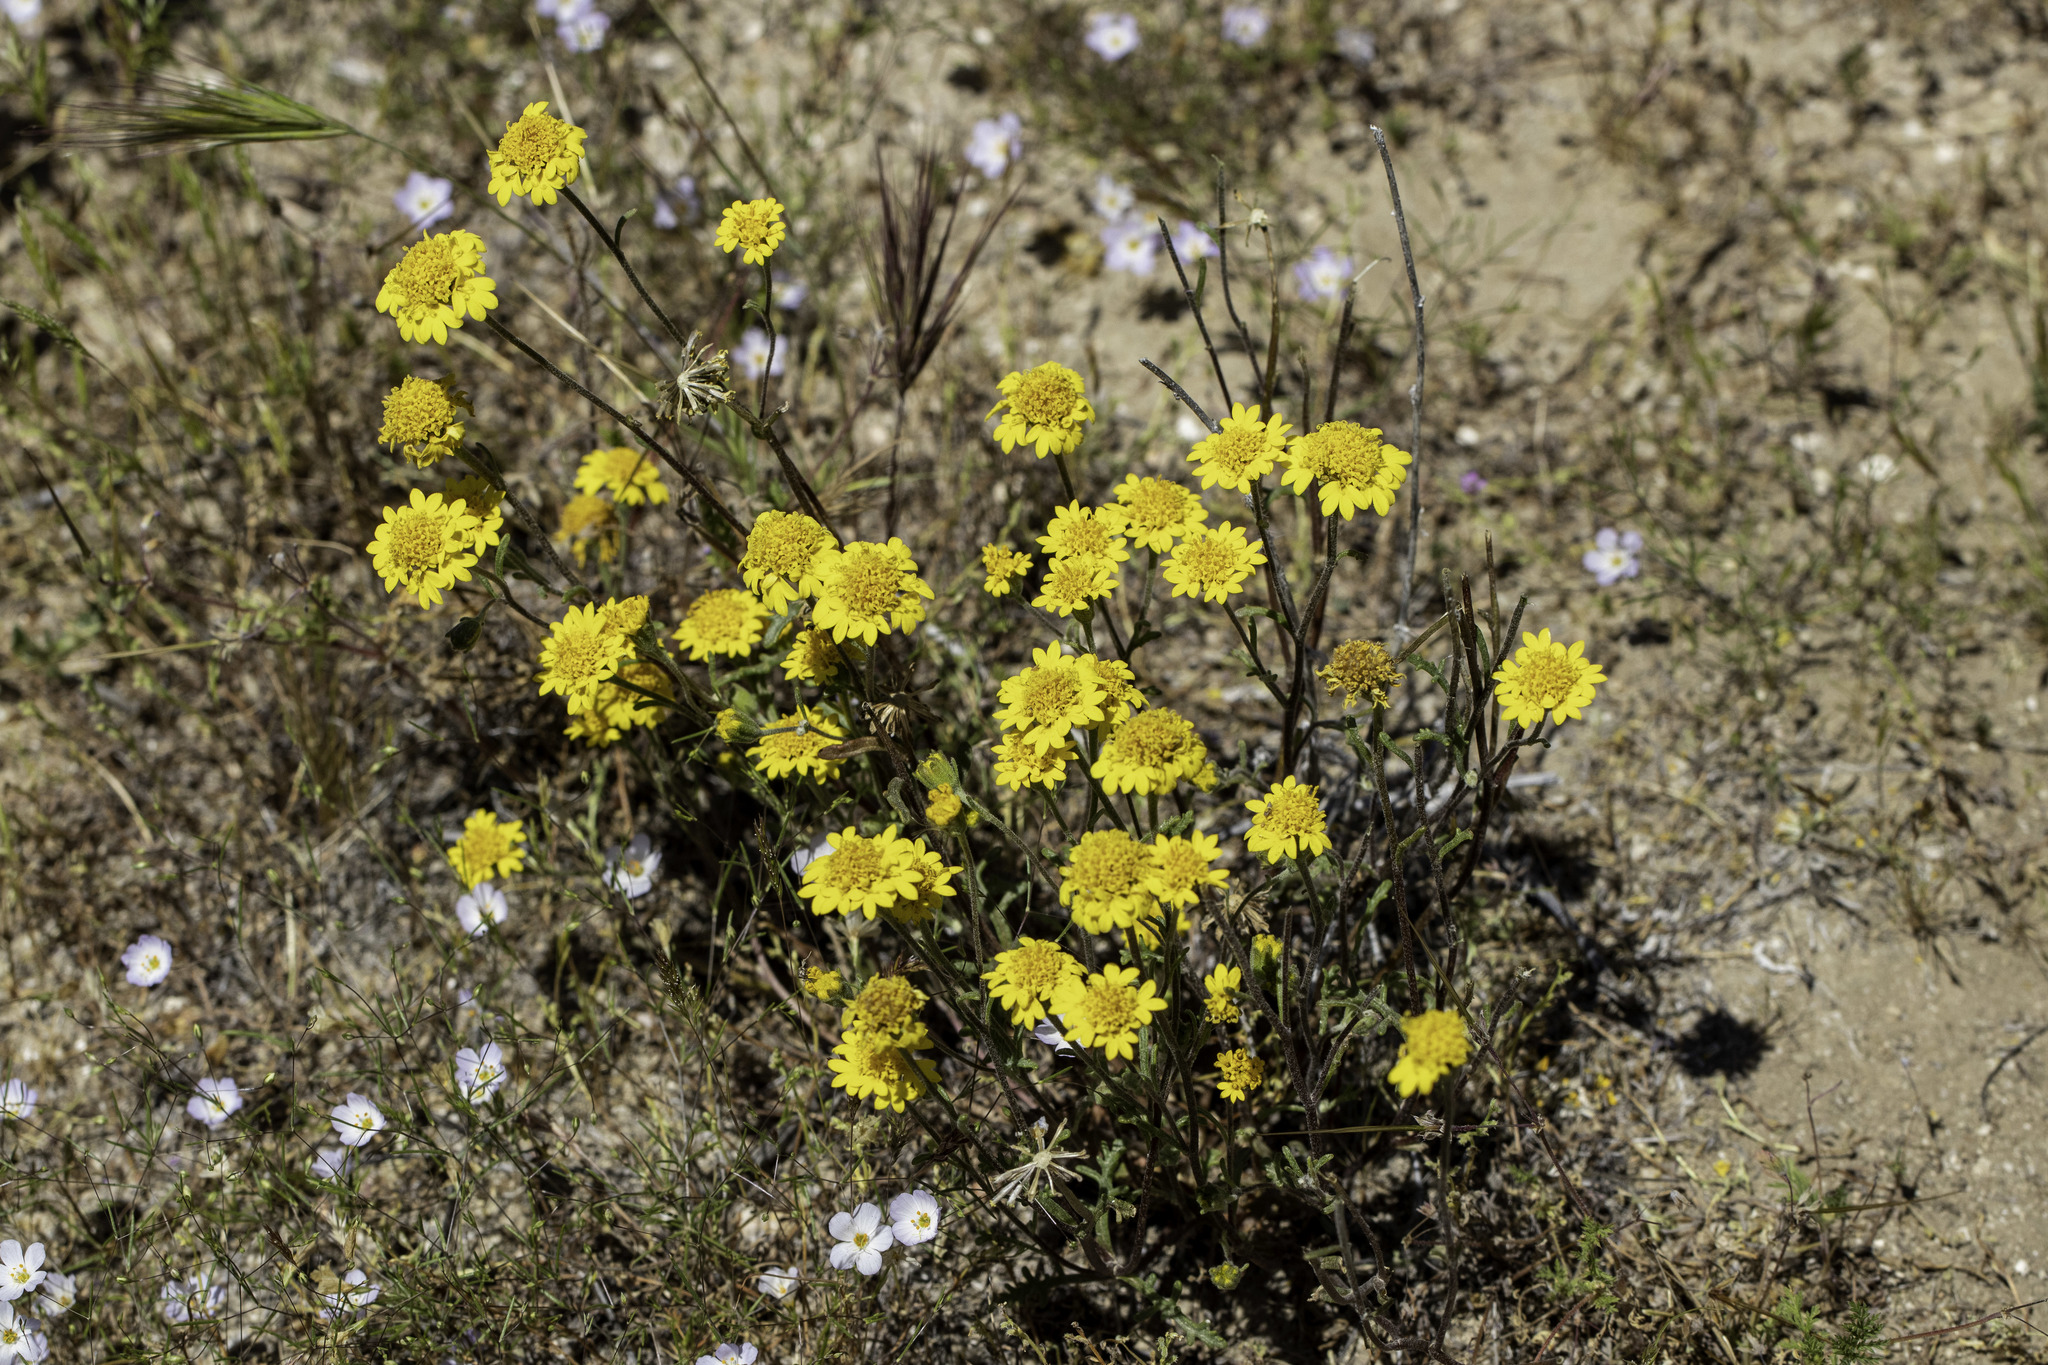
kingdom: Plantae
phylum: Tracheophyta
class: Magnoliopsida
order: Asterales
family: Asteraceae
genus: Chaenactis
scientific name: Chaenactis glabriuscula
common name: Yellow pincushion
